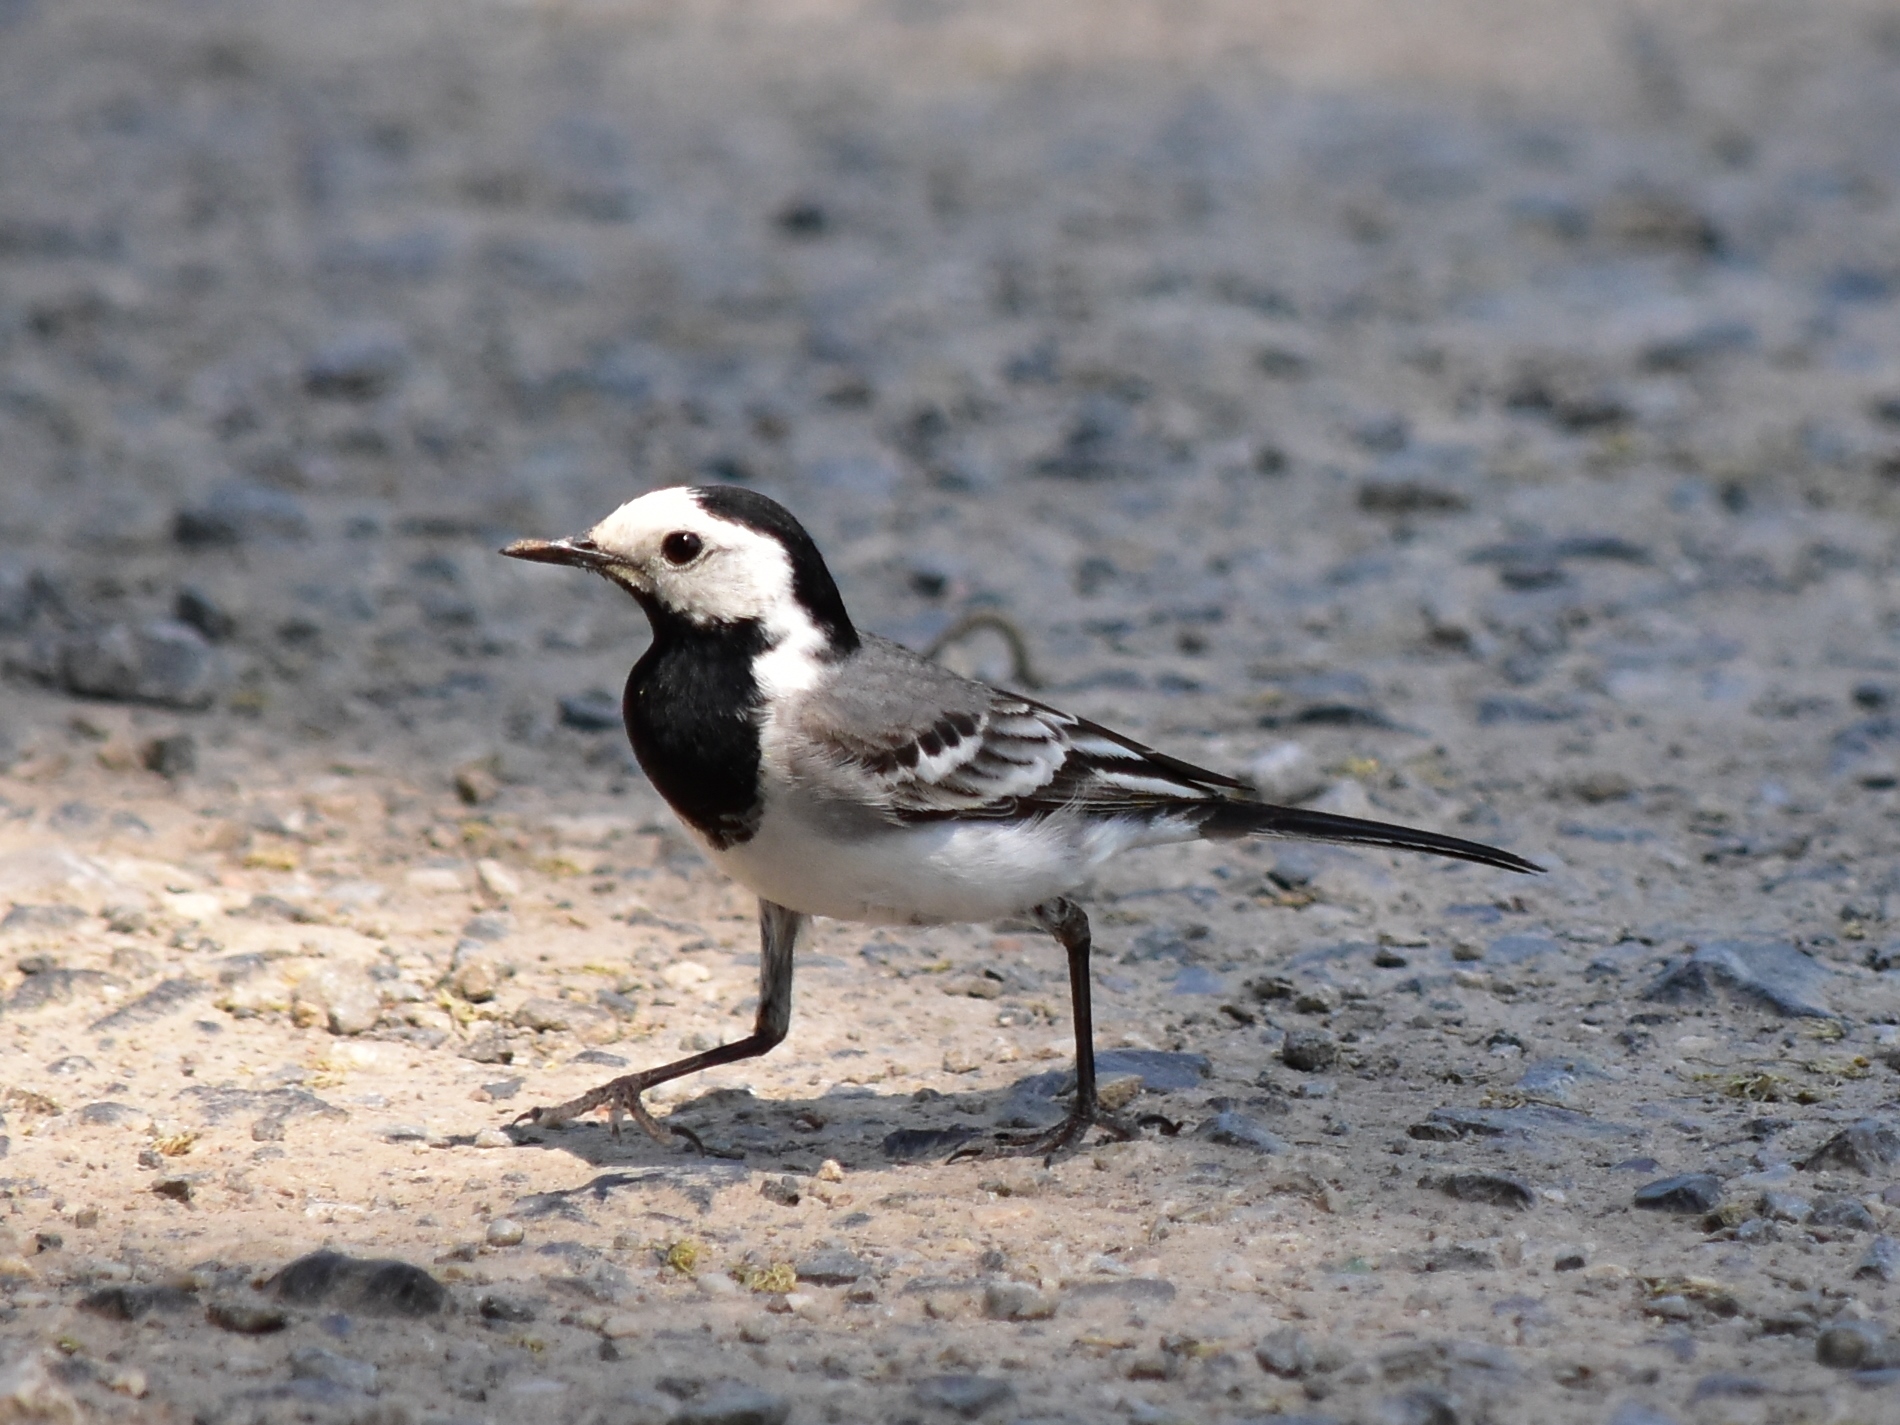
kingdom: Animalia
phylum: Chordata
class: Aves
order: Passeriformes
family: Motacillidae
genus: Motacilla
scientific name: Motacilla alba
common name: White wagtail
